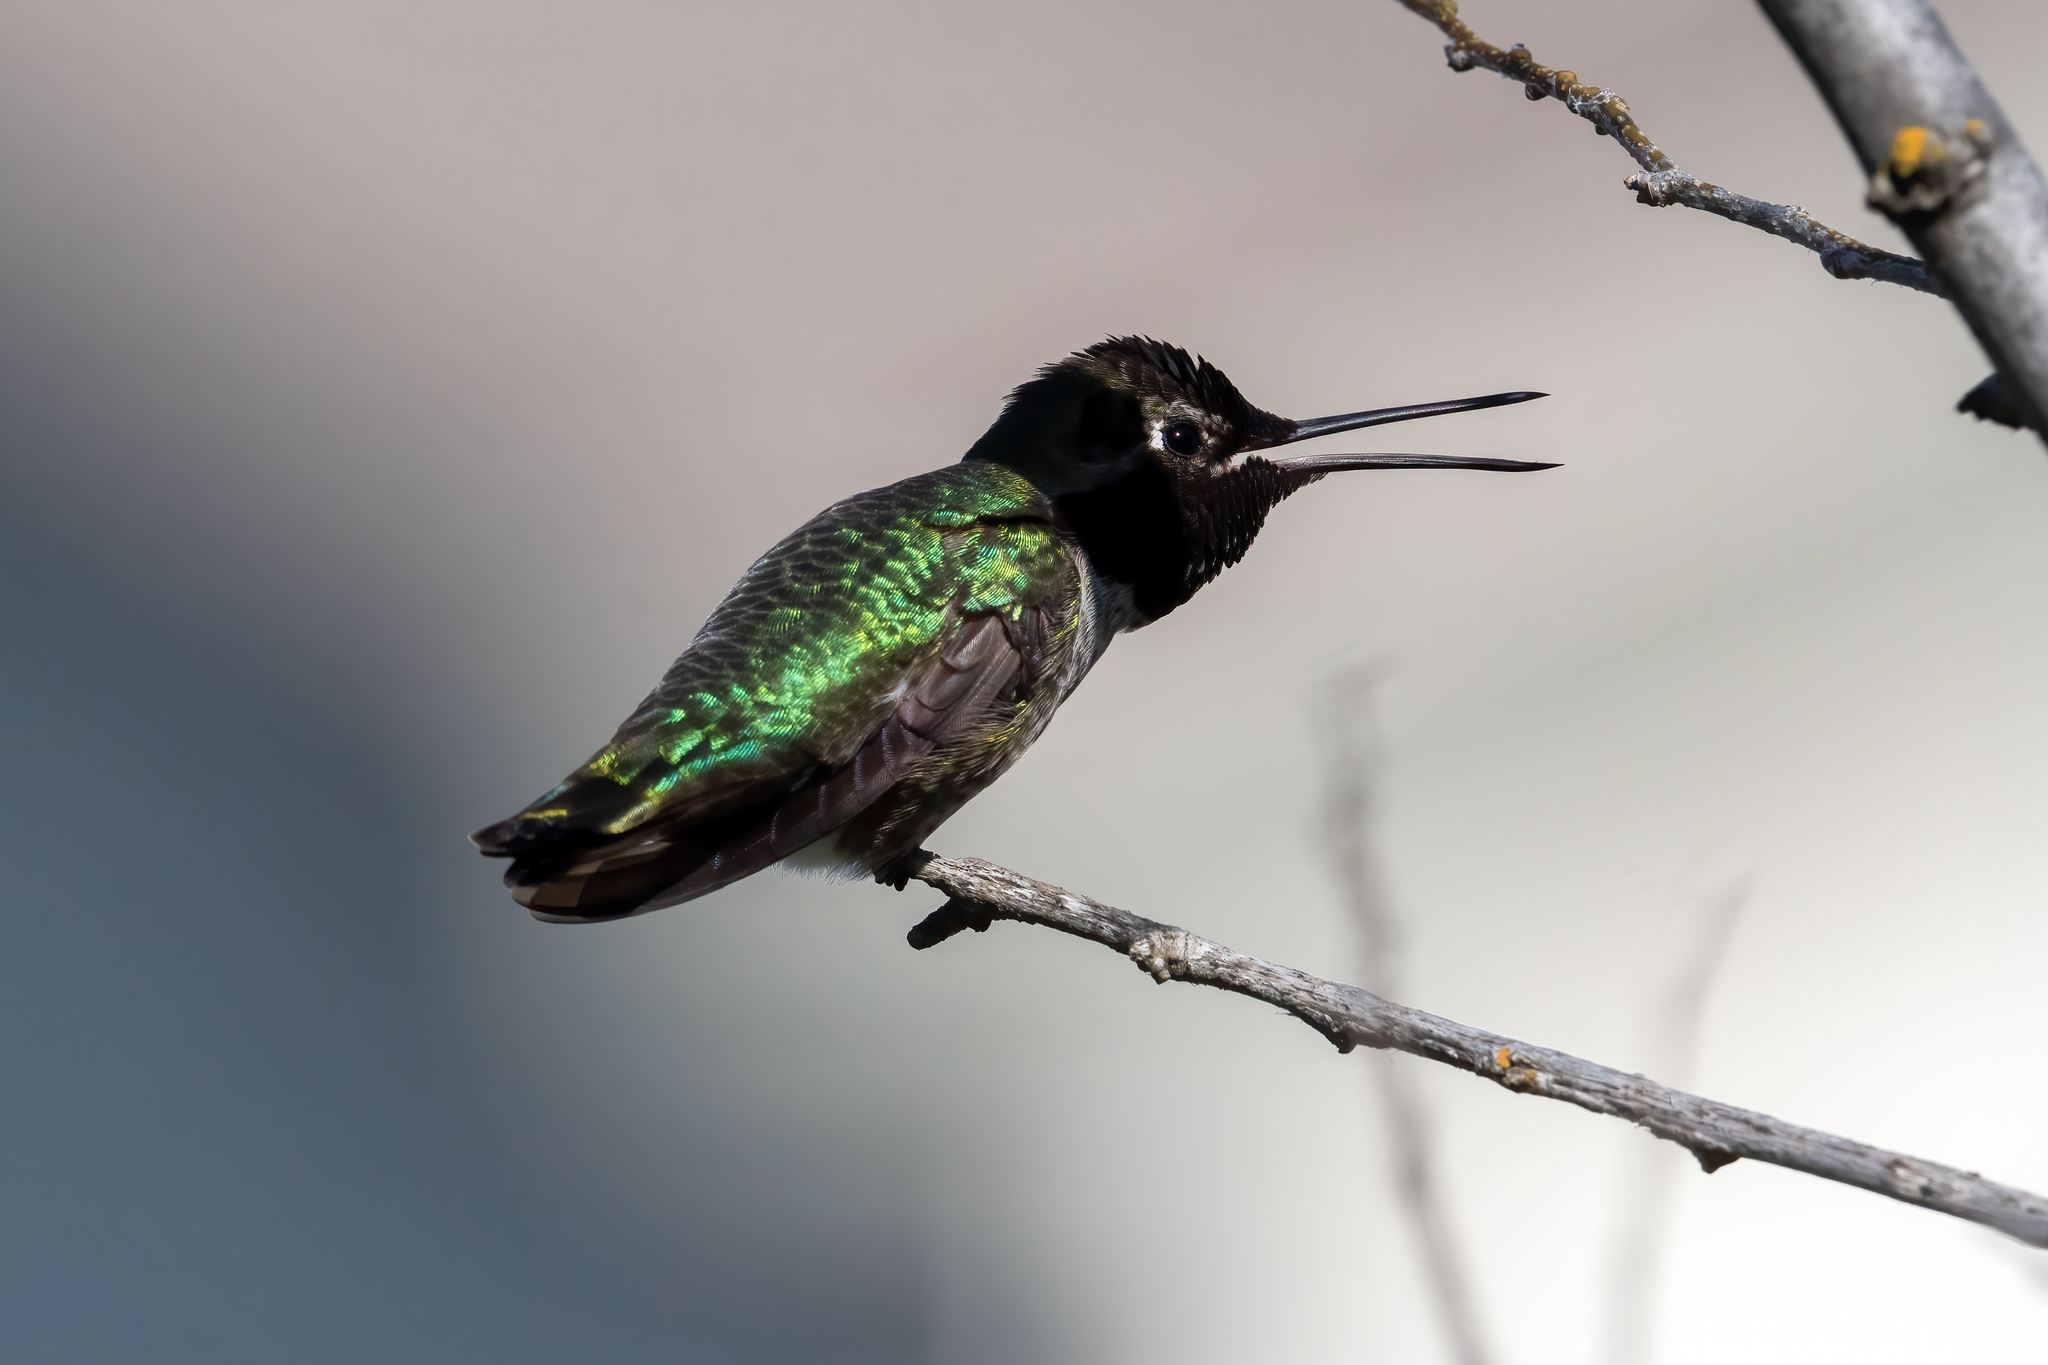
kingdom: Animalia
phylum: Chordata
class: Aves
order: Apodiformes
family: Trochilidae
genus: Calypte
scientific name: Calypte anna
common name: Anna's hummingbird
